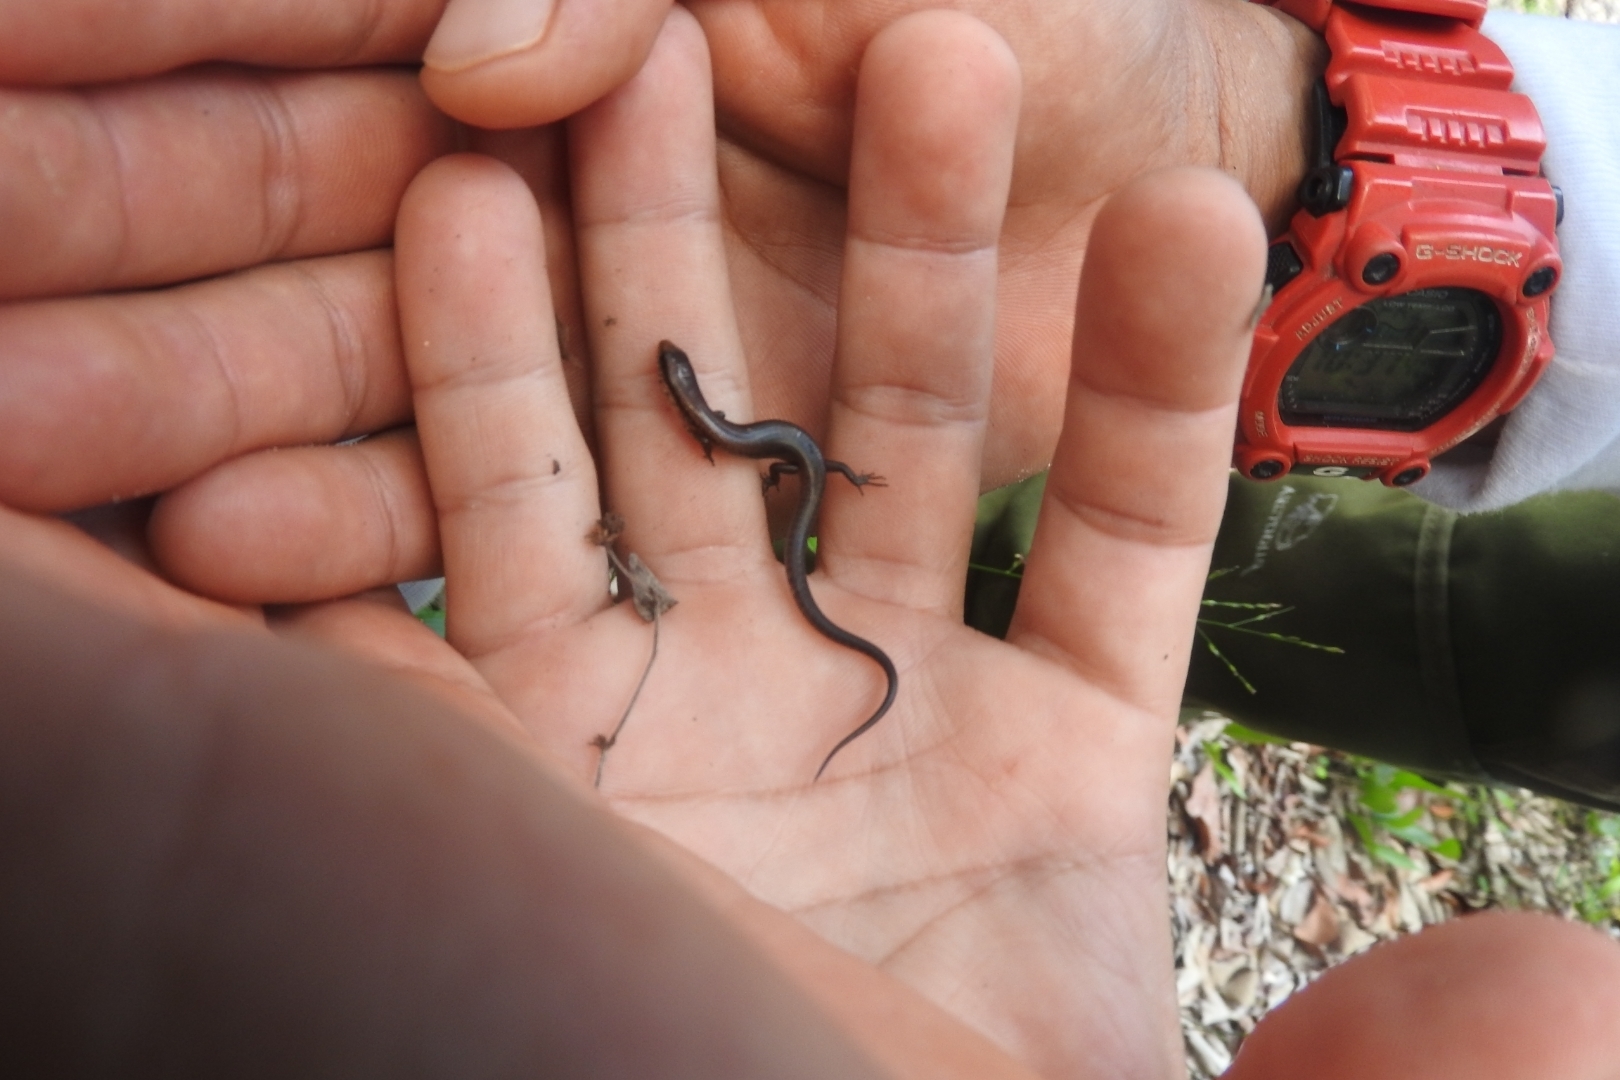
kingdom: Animalia
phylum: Chordata
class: Squamata
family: Scincidae
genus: Scincella
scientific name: Scincella cherriei
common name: Brown forest skink
